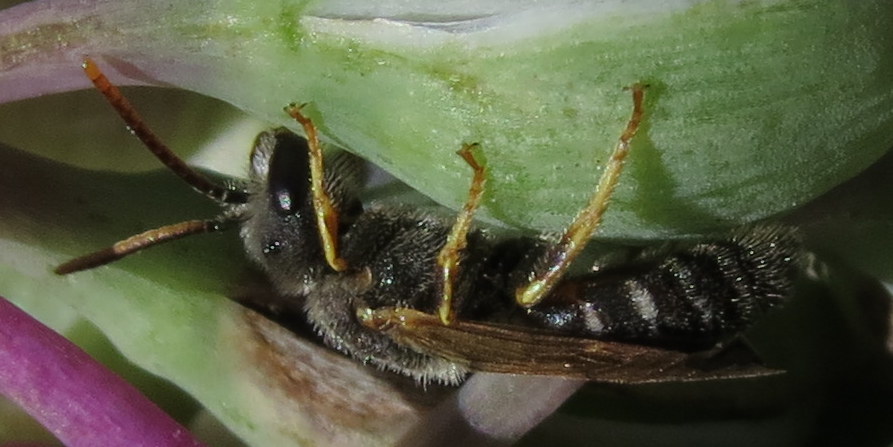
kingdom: Animalia
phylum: Arthropoda
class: Insecta
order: Hymenoptera
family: Halictidae
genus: Halictus
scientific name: Halictus ligatus
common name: Ligated furrow bee
